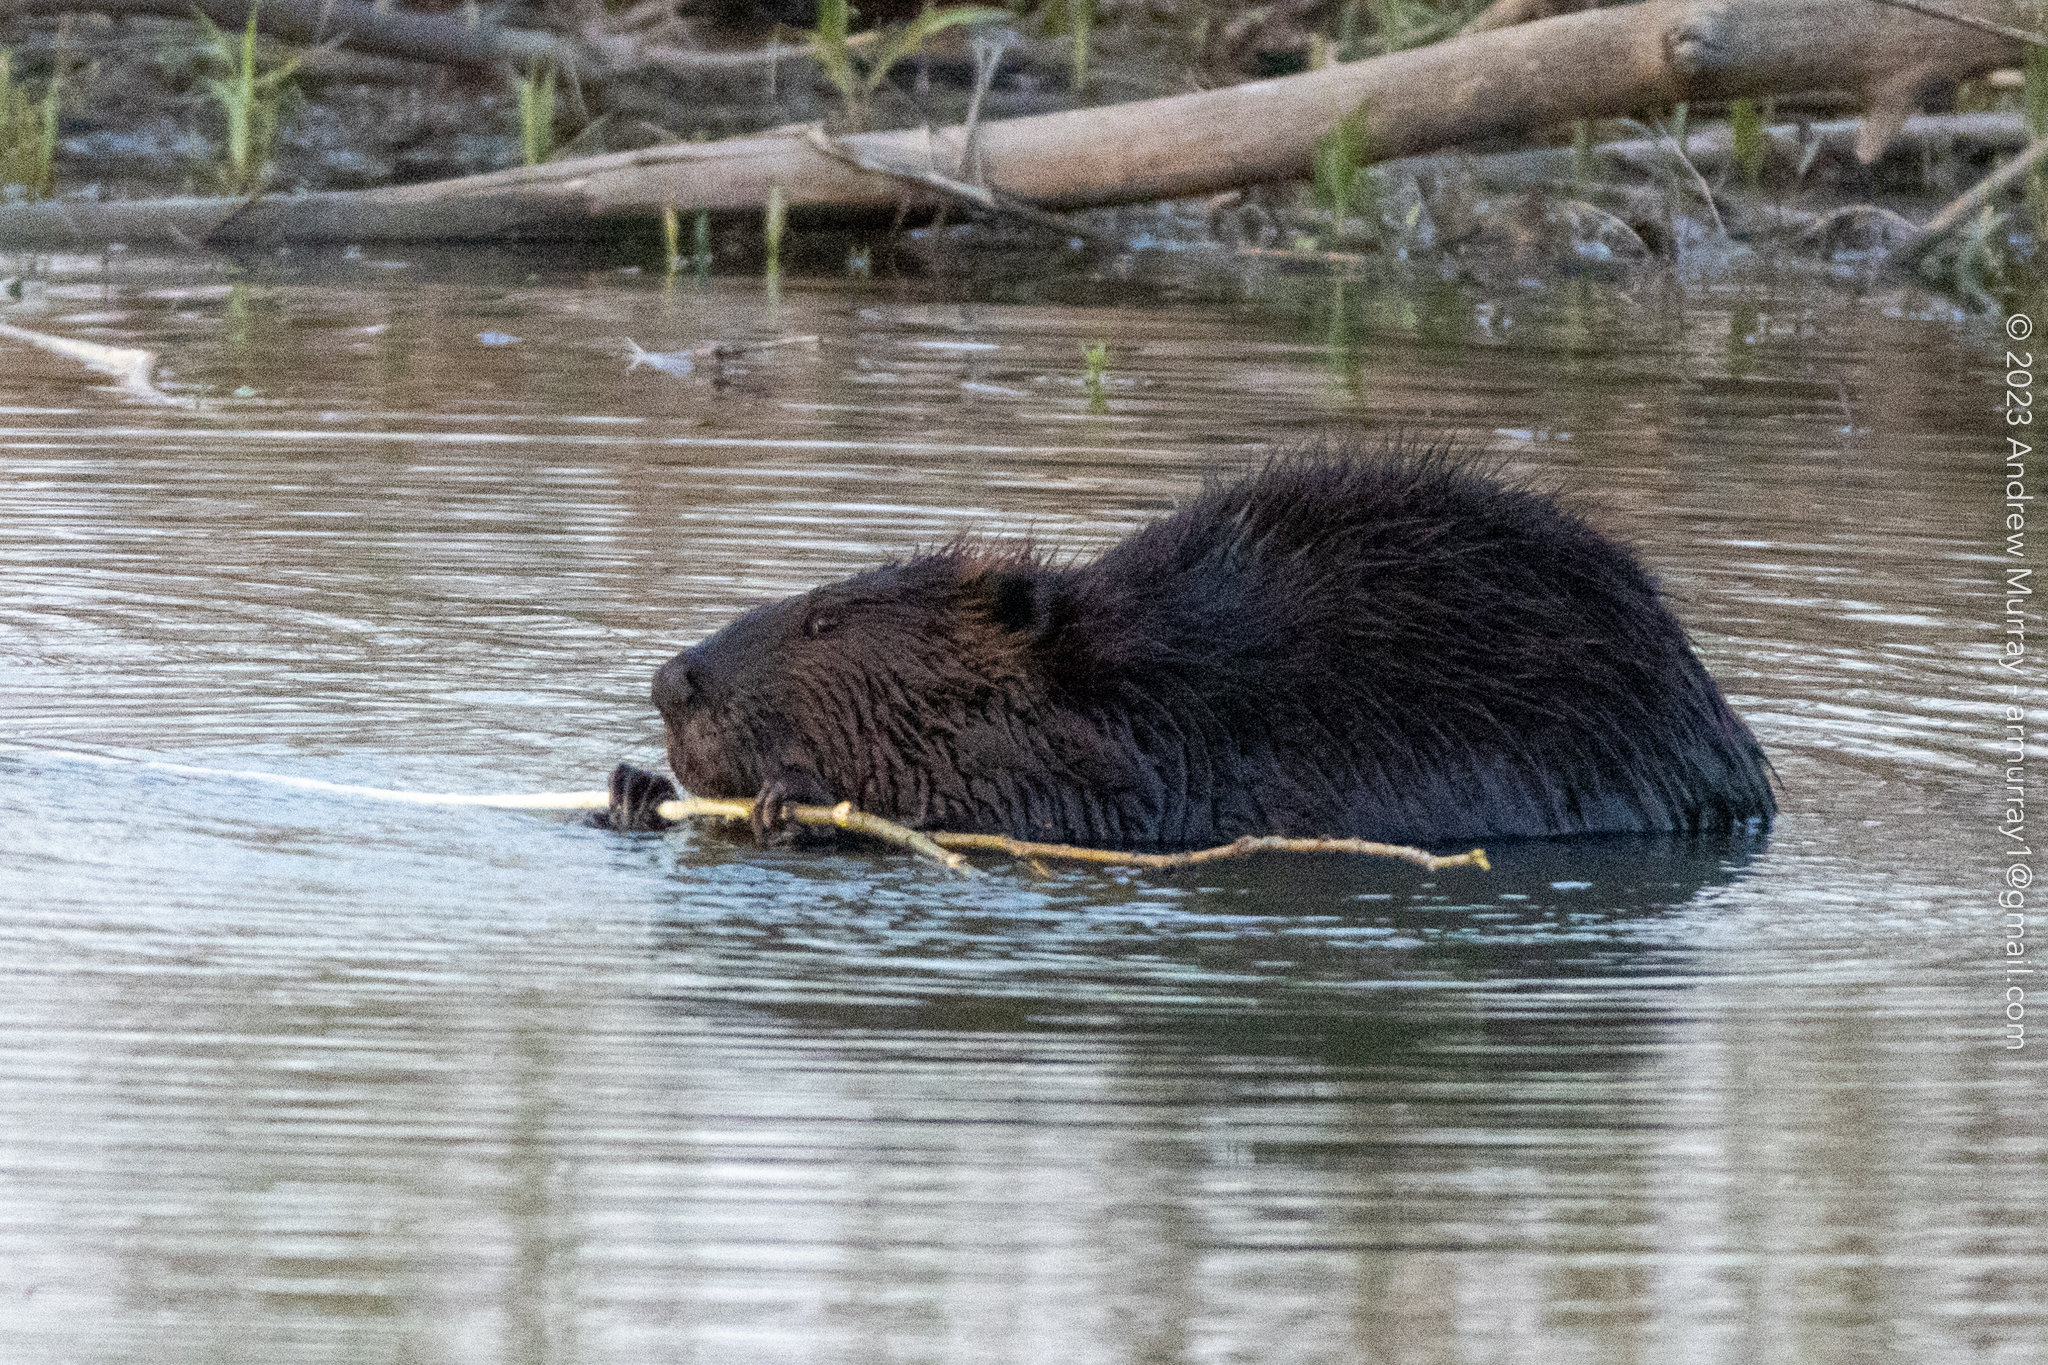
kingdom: Animalia
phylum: Chordata
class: Mammalia
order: Rodentia
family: Castoridae
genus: Castor
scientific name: Castor canadensis
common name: American beaver
